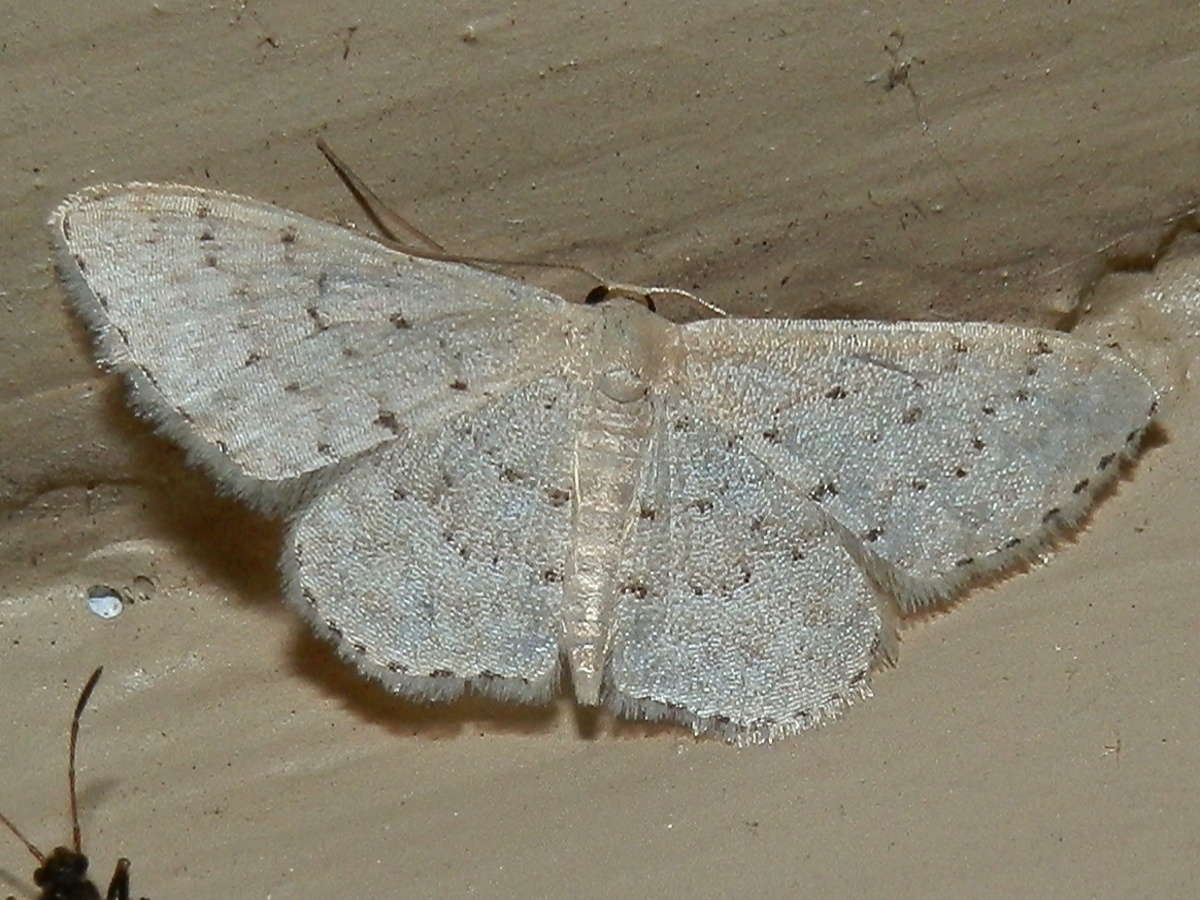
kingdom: Animalia
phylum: Arthropoda
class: Insecta
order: Lepidoptera
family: Geometridae
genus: Idaea
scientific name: Idaea philocosma
